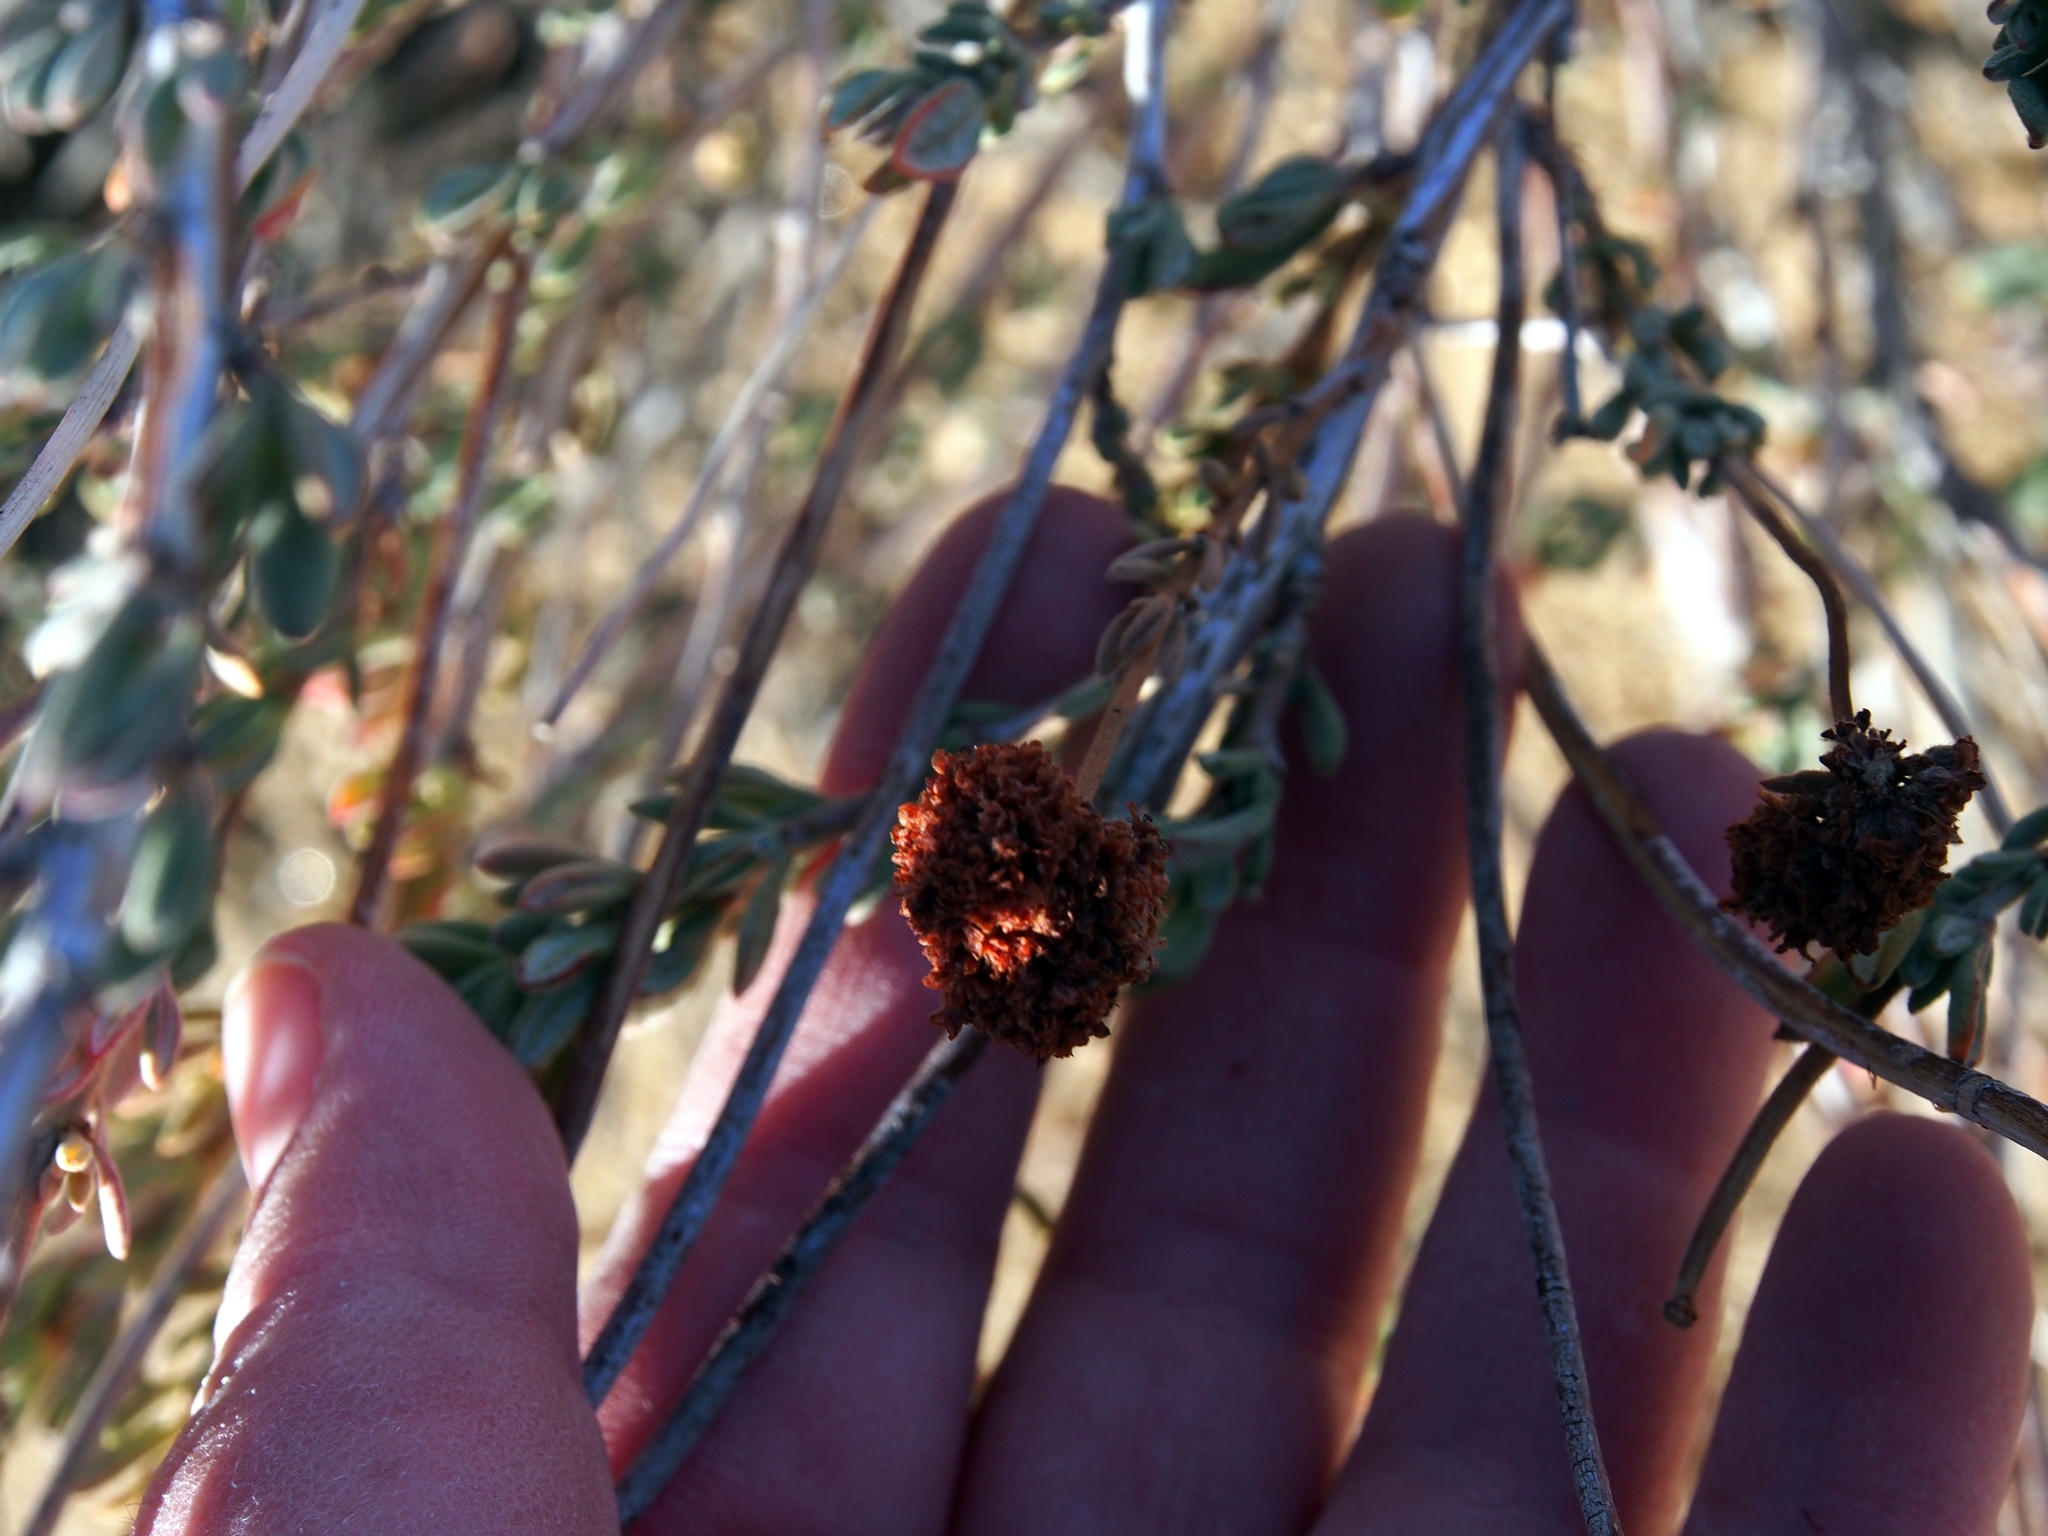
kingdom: Plantae
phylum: Tracheophyta
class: Magnoliopsida
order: Caryophyllales
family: Polygonaceae
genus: Eriogonum
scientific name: Eriogonum fasciculatum
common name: California wild buckwheat
